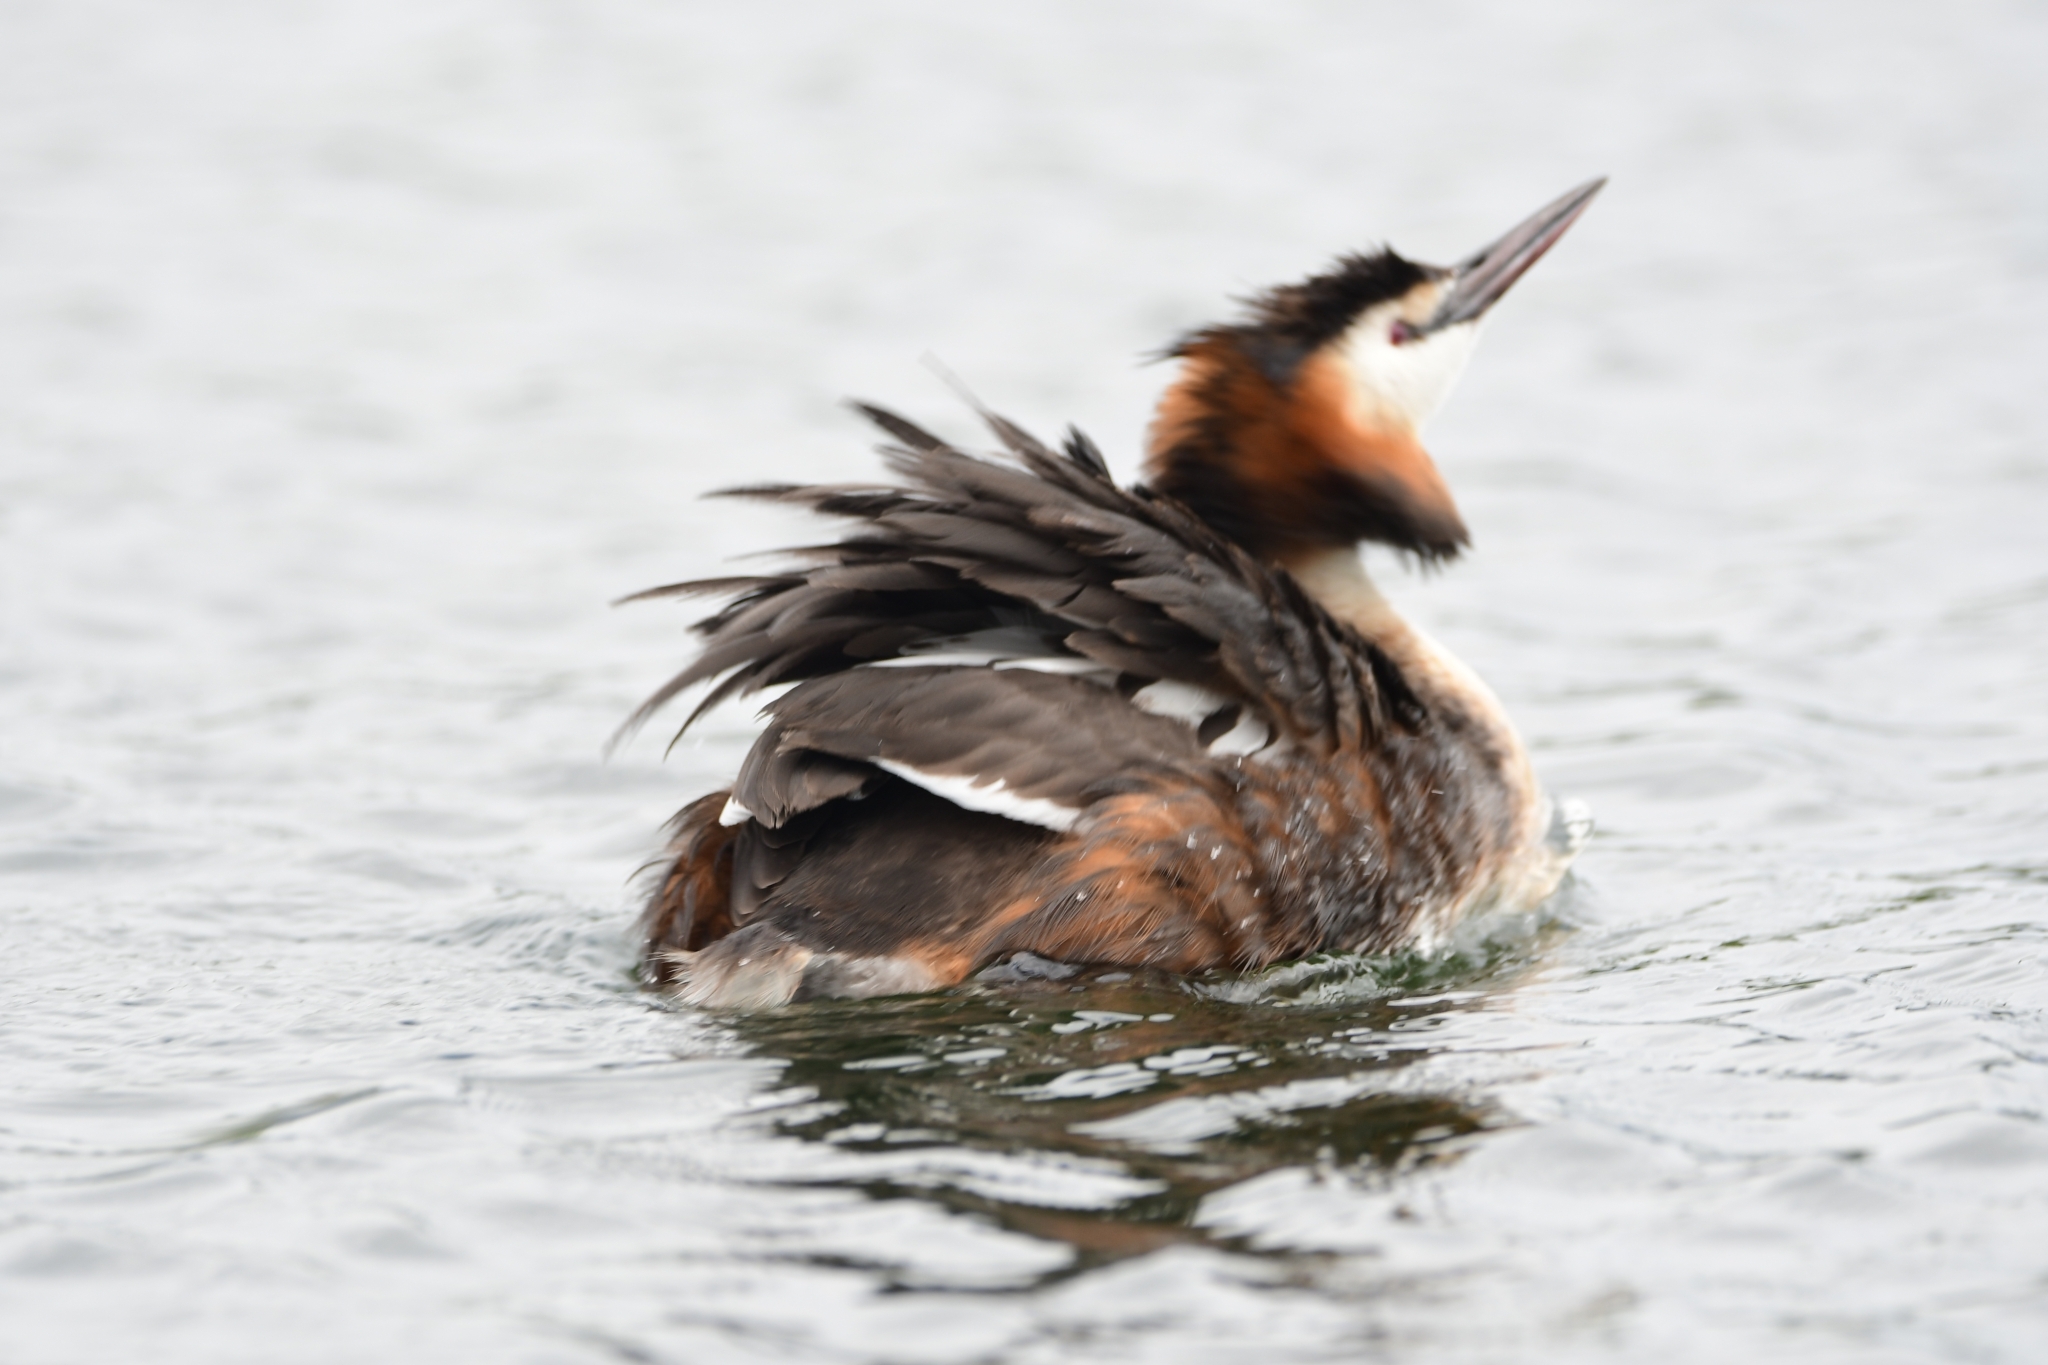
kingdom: Animalia
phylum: Chordata
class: Aves
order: Podicipediformes
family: Podicipedidae
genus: Podiceps
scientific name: Podiceps cristatus
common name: Great crested grebe
